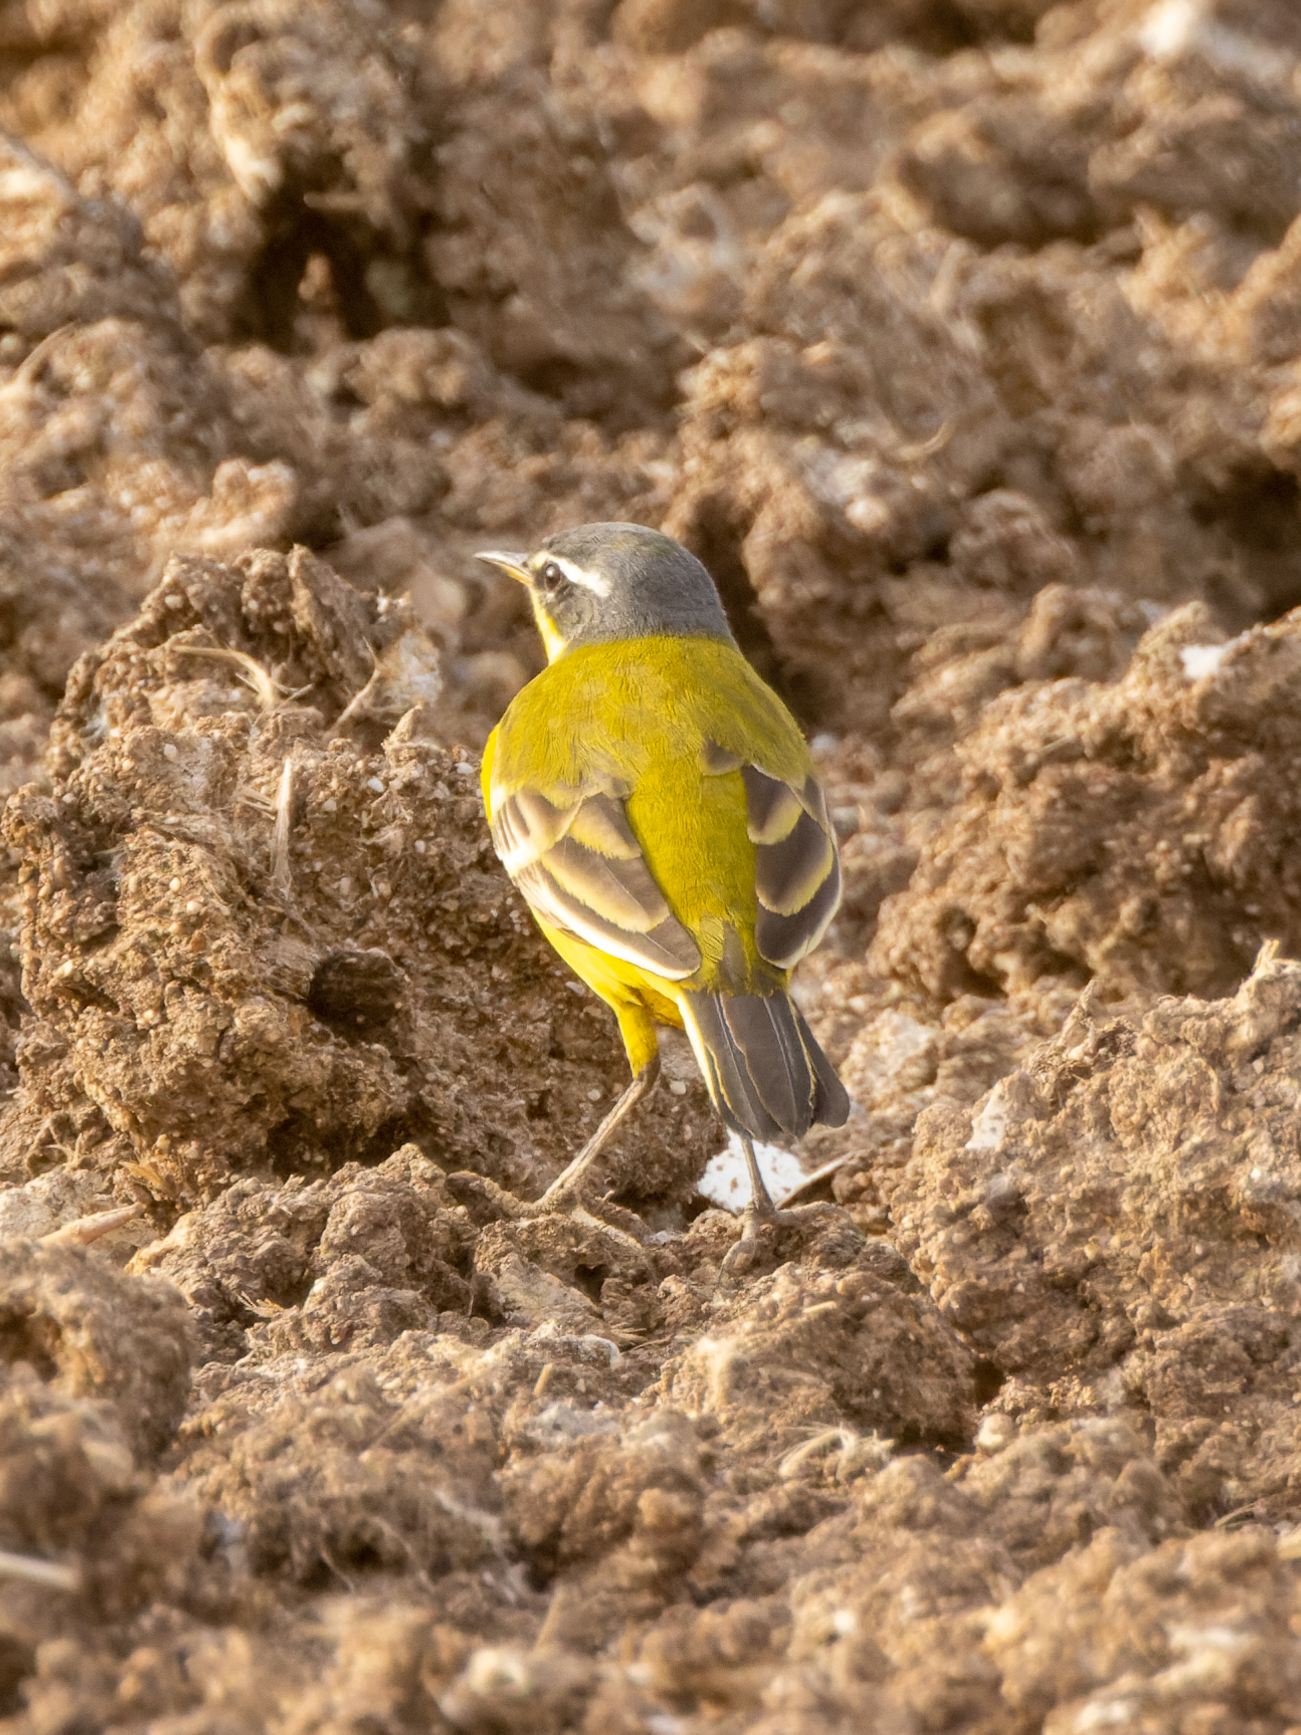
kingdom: Animalia
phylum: Chordata
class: Aves
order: Passeriformes
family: Motacillidae
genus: Motacilla
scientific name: Motacilla flava
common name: Western yellow wagtail
